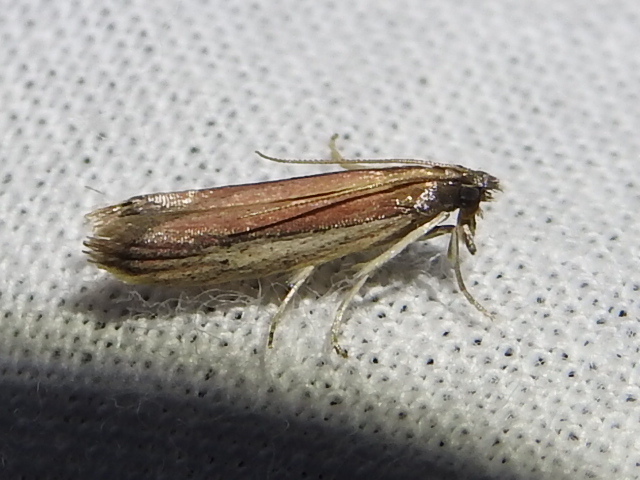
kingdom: Animalia
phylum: Arthropoda
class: Insecta
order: Lepidoptera
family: Pyralidae
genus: Tampa
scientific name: Tampa dimediatella
